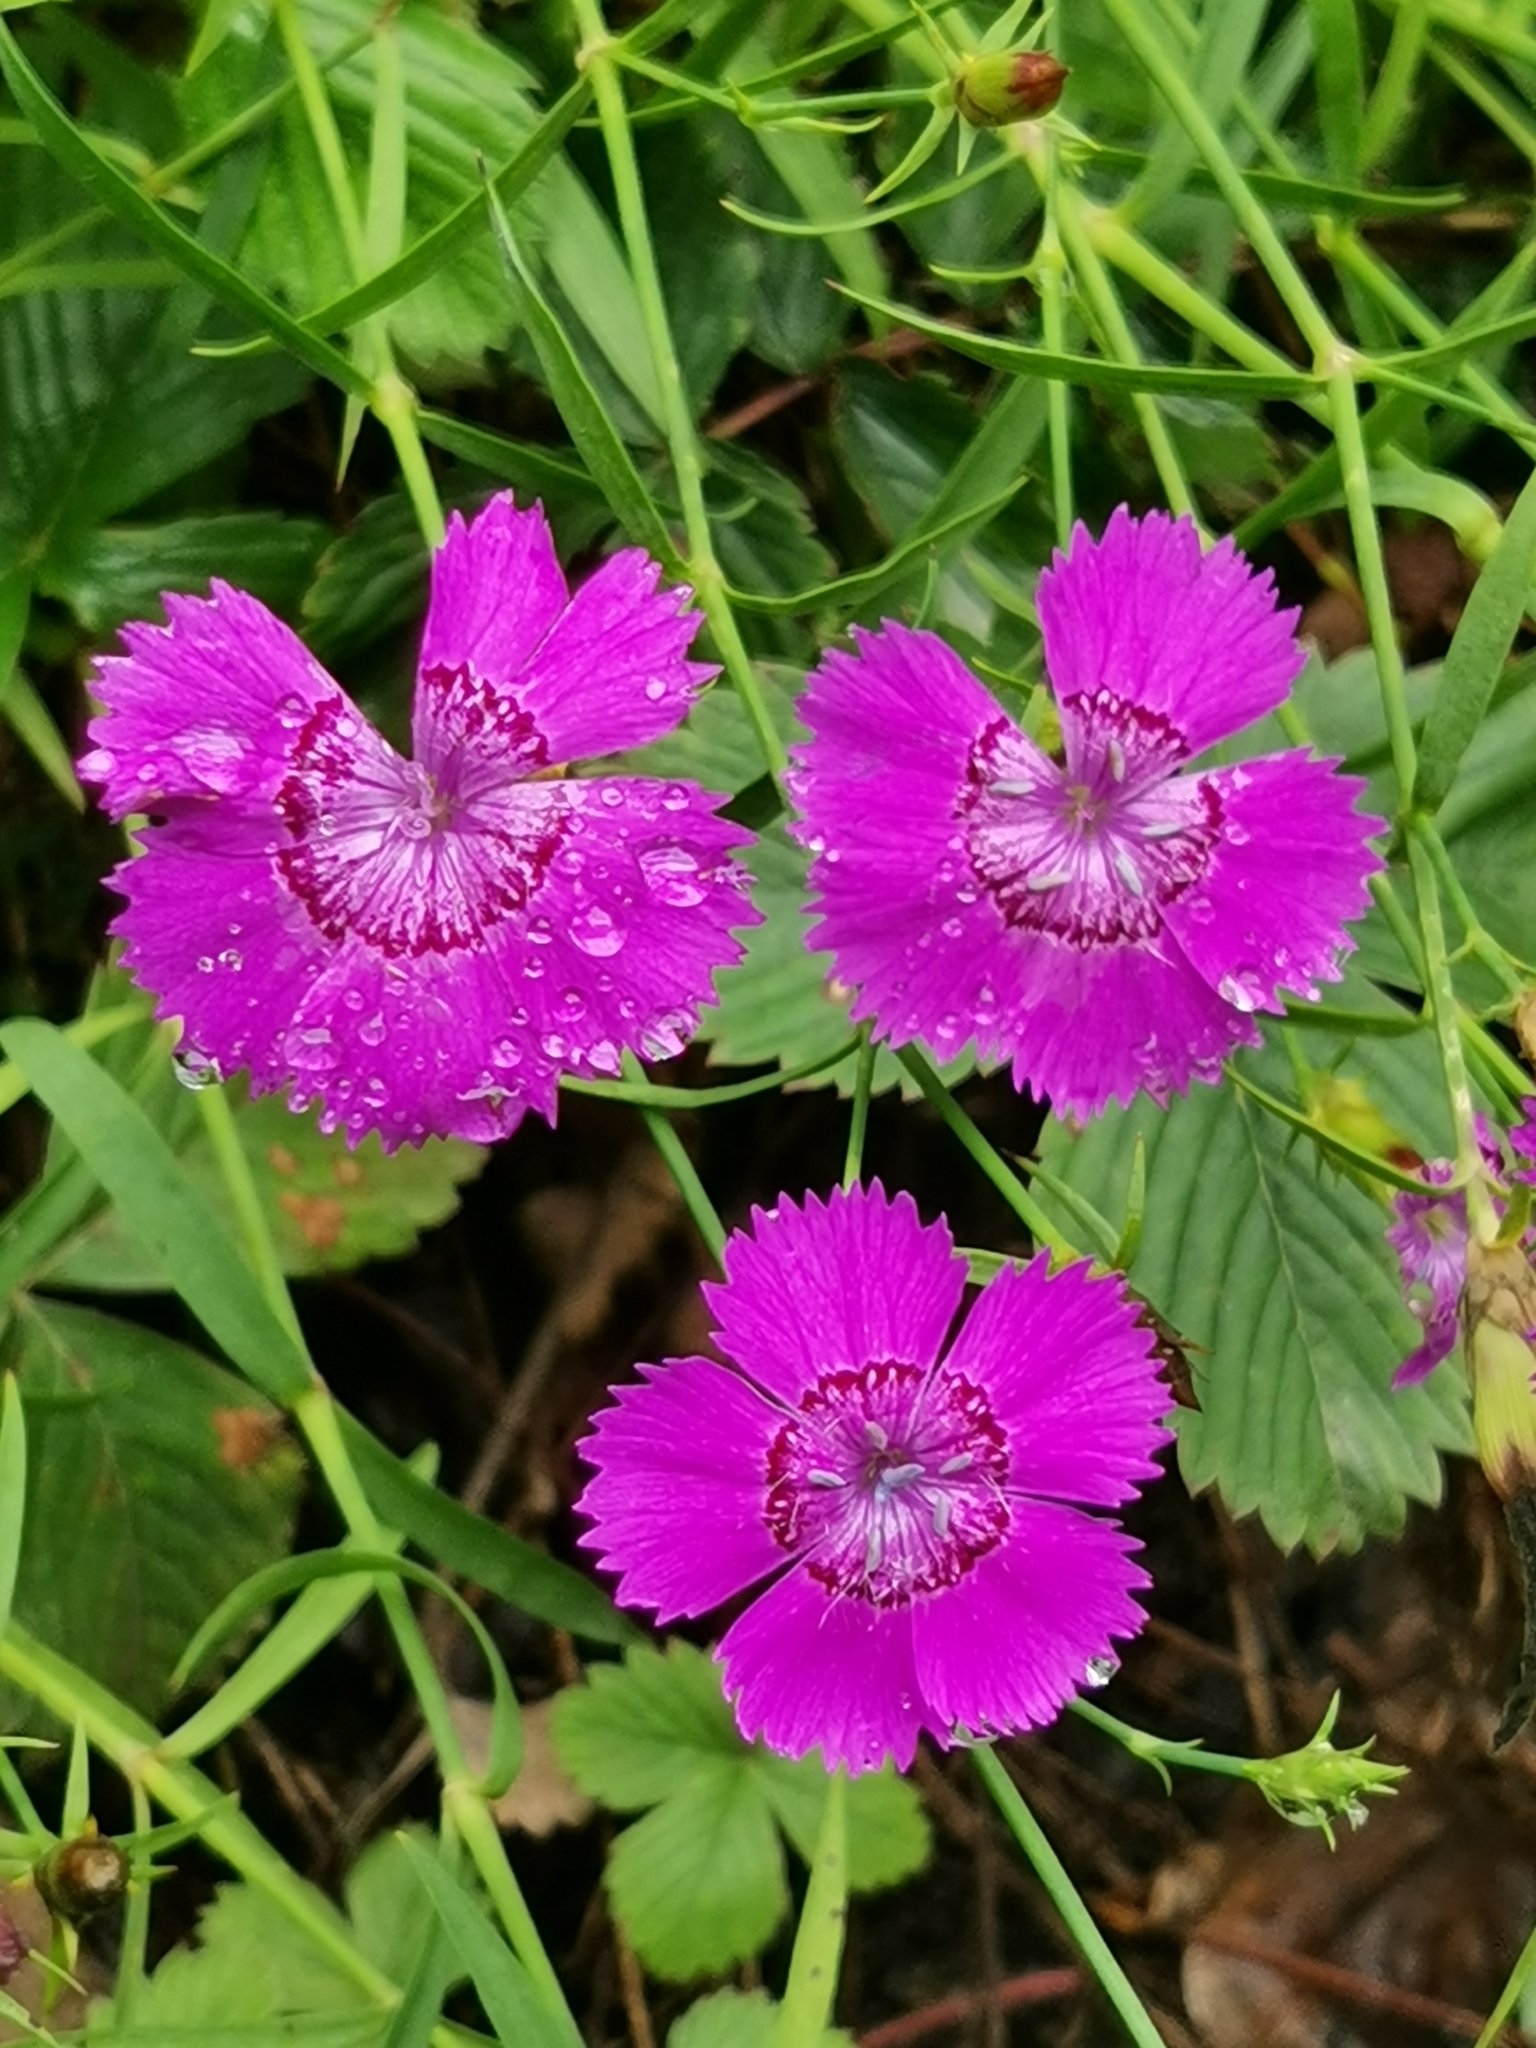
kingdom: Plantae
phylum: Tracheophyta
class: Magnoliopsida
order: Caryophyllales
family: Caryophyllaceae
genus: Dianthus
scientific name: Dianthus chinensis
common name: Rainbow pink
